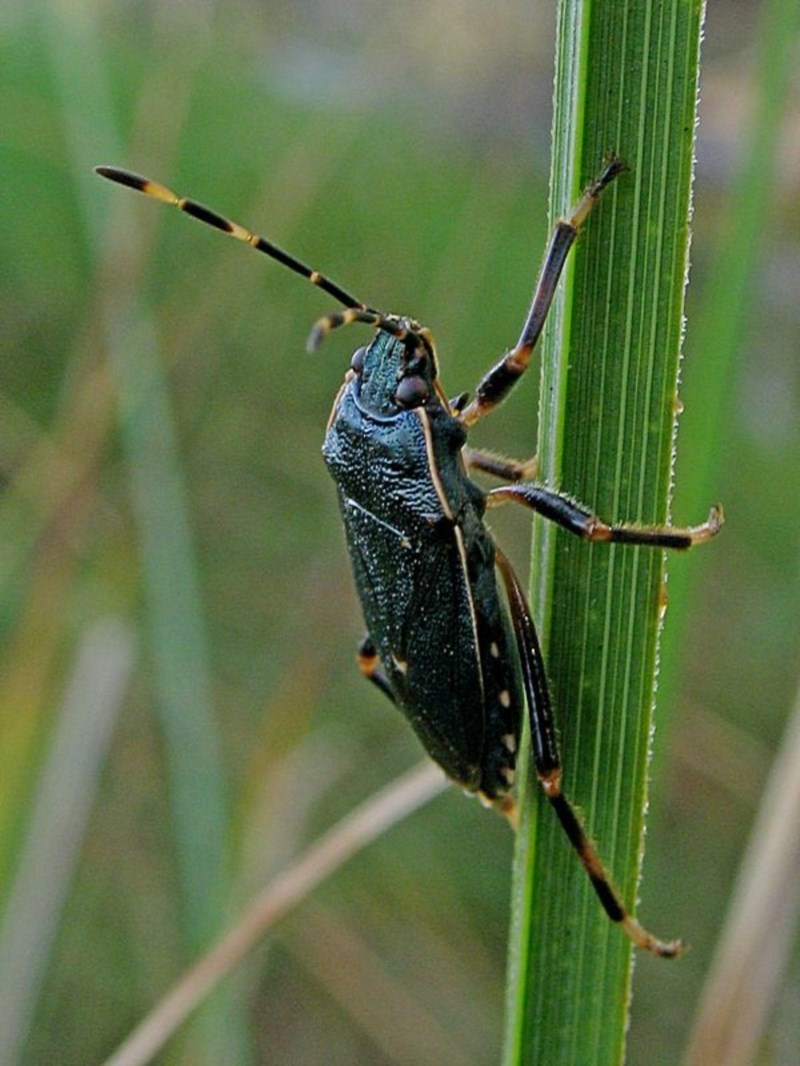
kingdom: Animalia
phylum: Arthropoda
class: Insecta
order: Hemiptera
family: Pentatomidae
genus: Notius
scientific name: Notius
